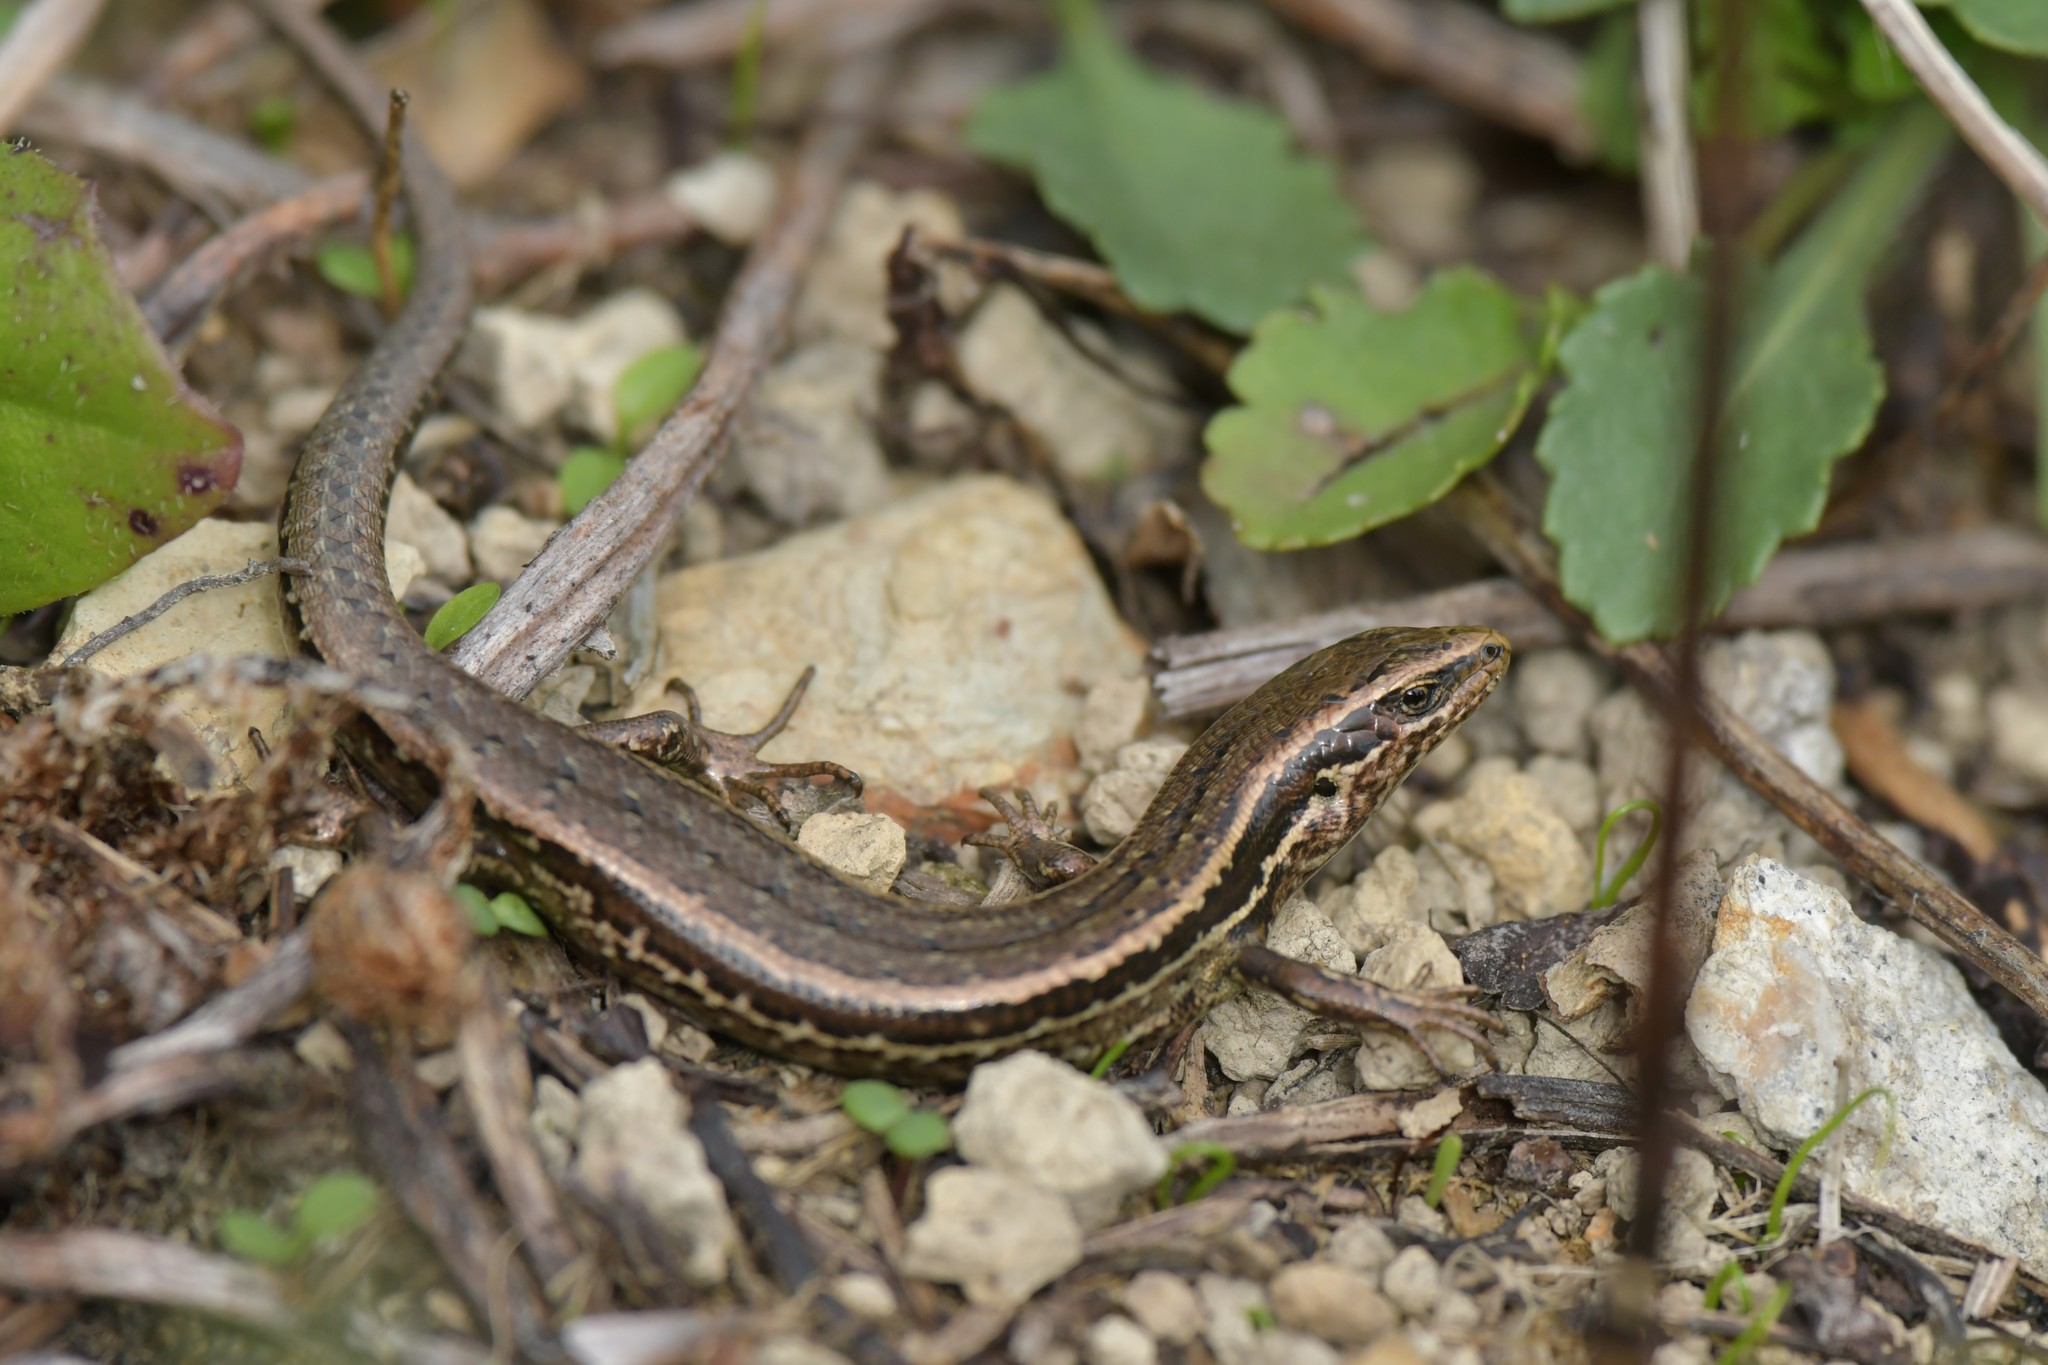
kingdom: Animalia
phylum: Chordata
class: Squamata
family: Scincidae
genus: Oligosoma
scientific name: Oligosoma polychroma
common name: Common new zealand skink
